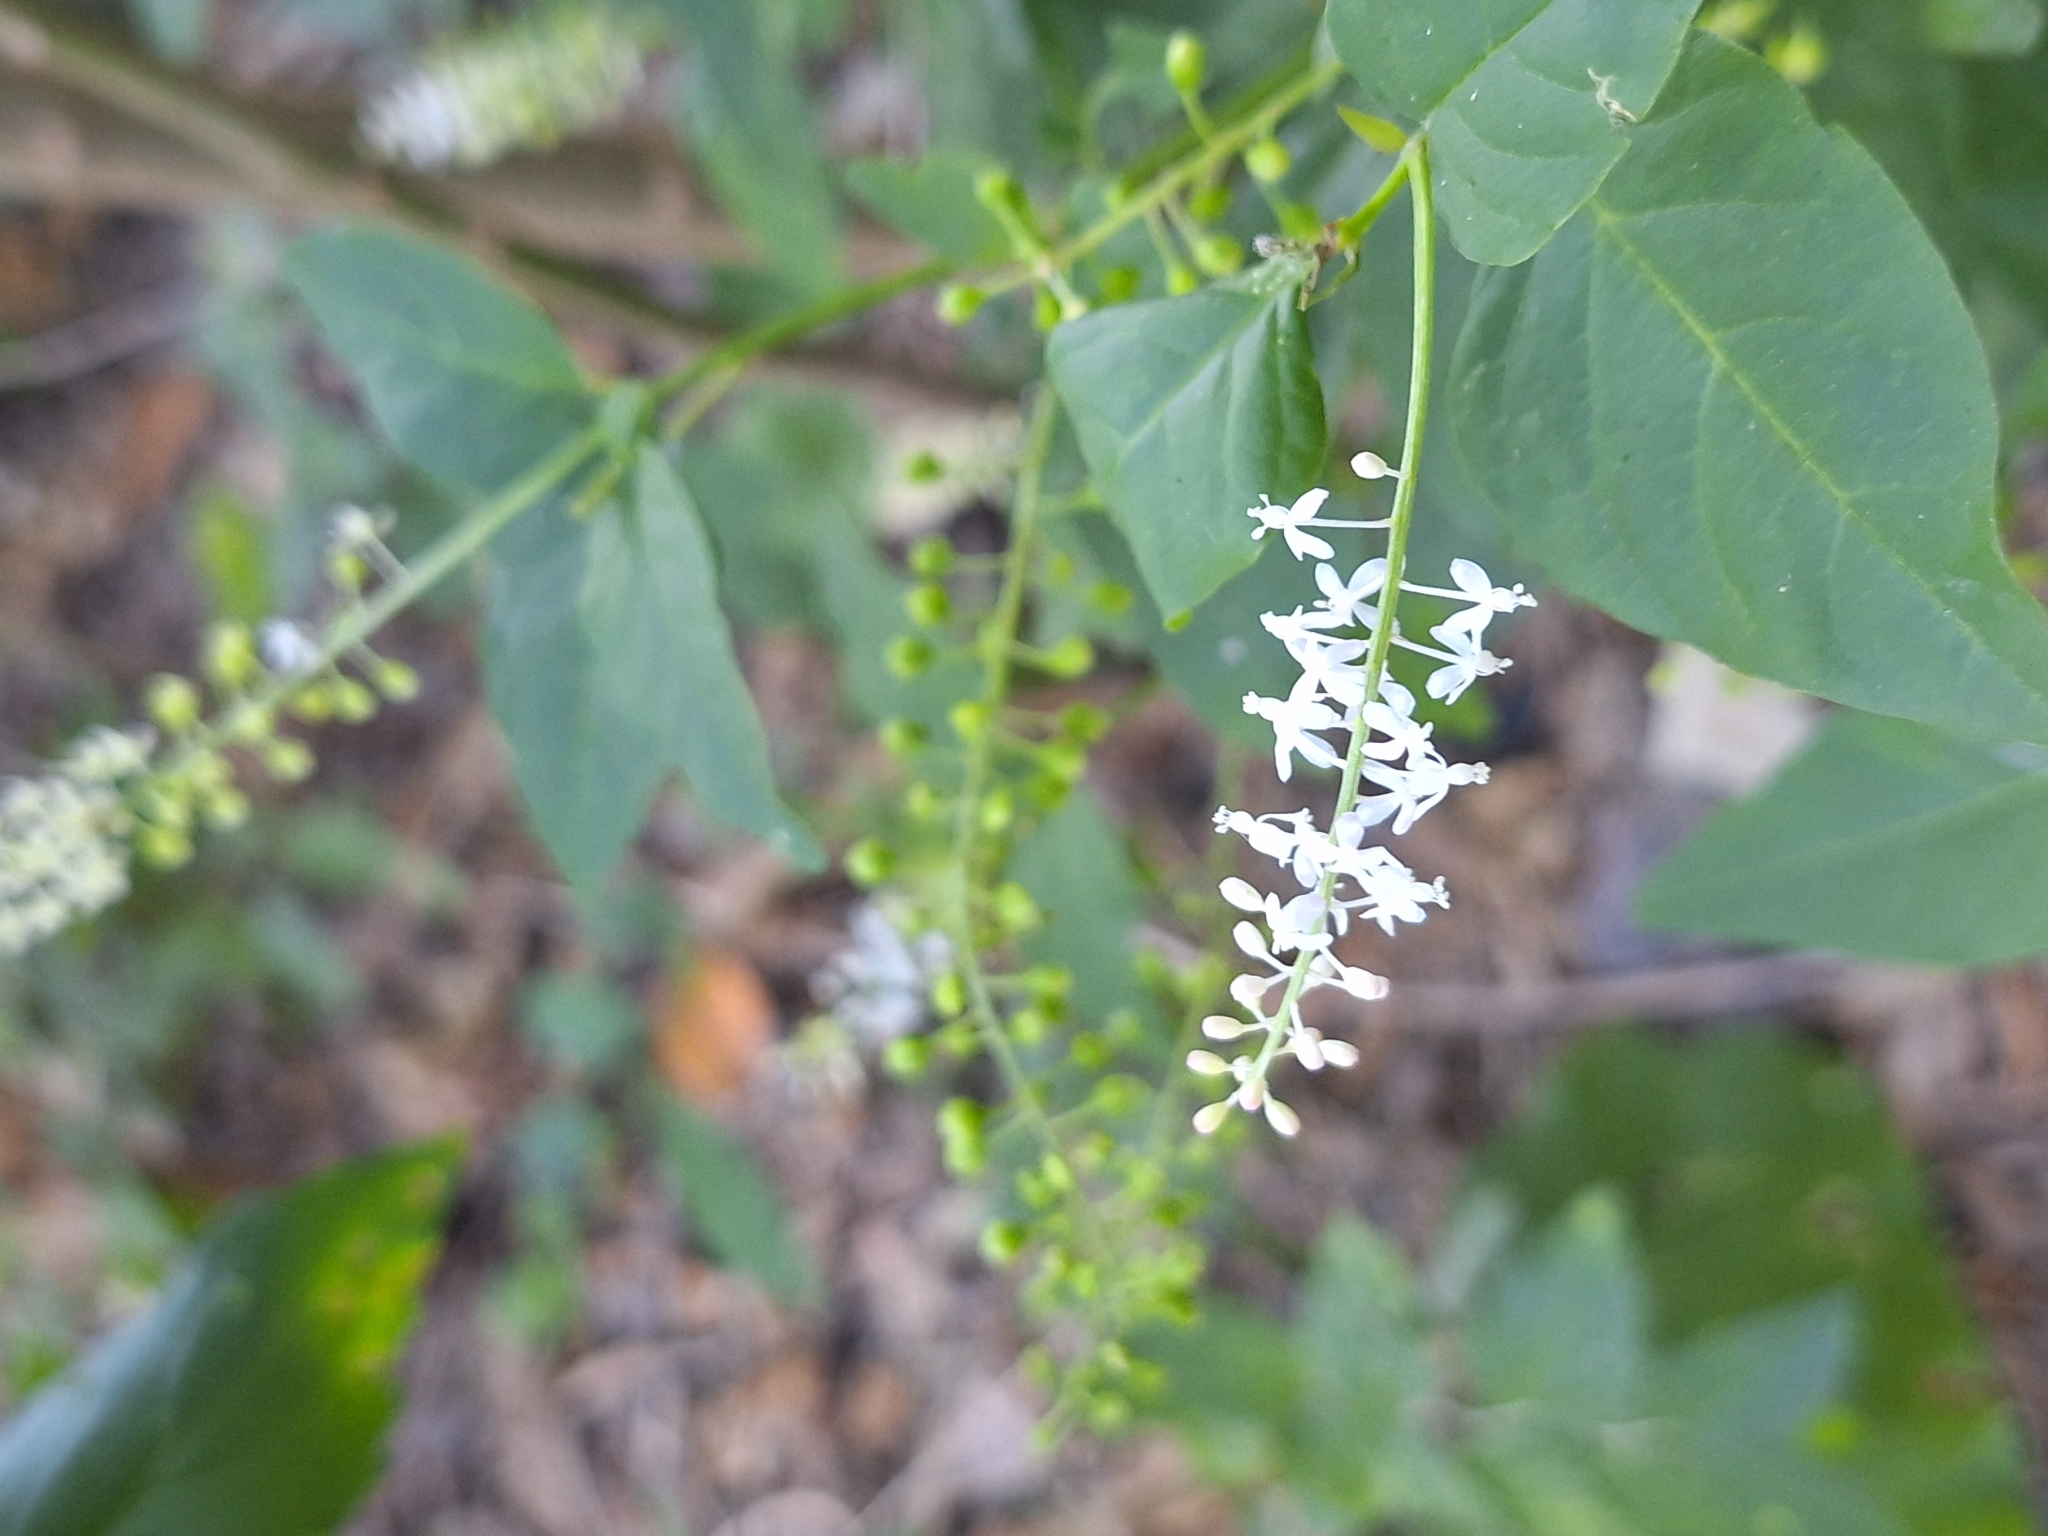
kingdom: Plantae
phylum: Tracheophyta
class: Magnoliopsida
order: Caryophyllales
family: Phytolaccaceae
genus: Rivina
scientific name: Rivina humilis
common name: Rougeplant
